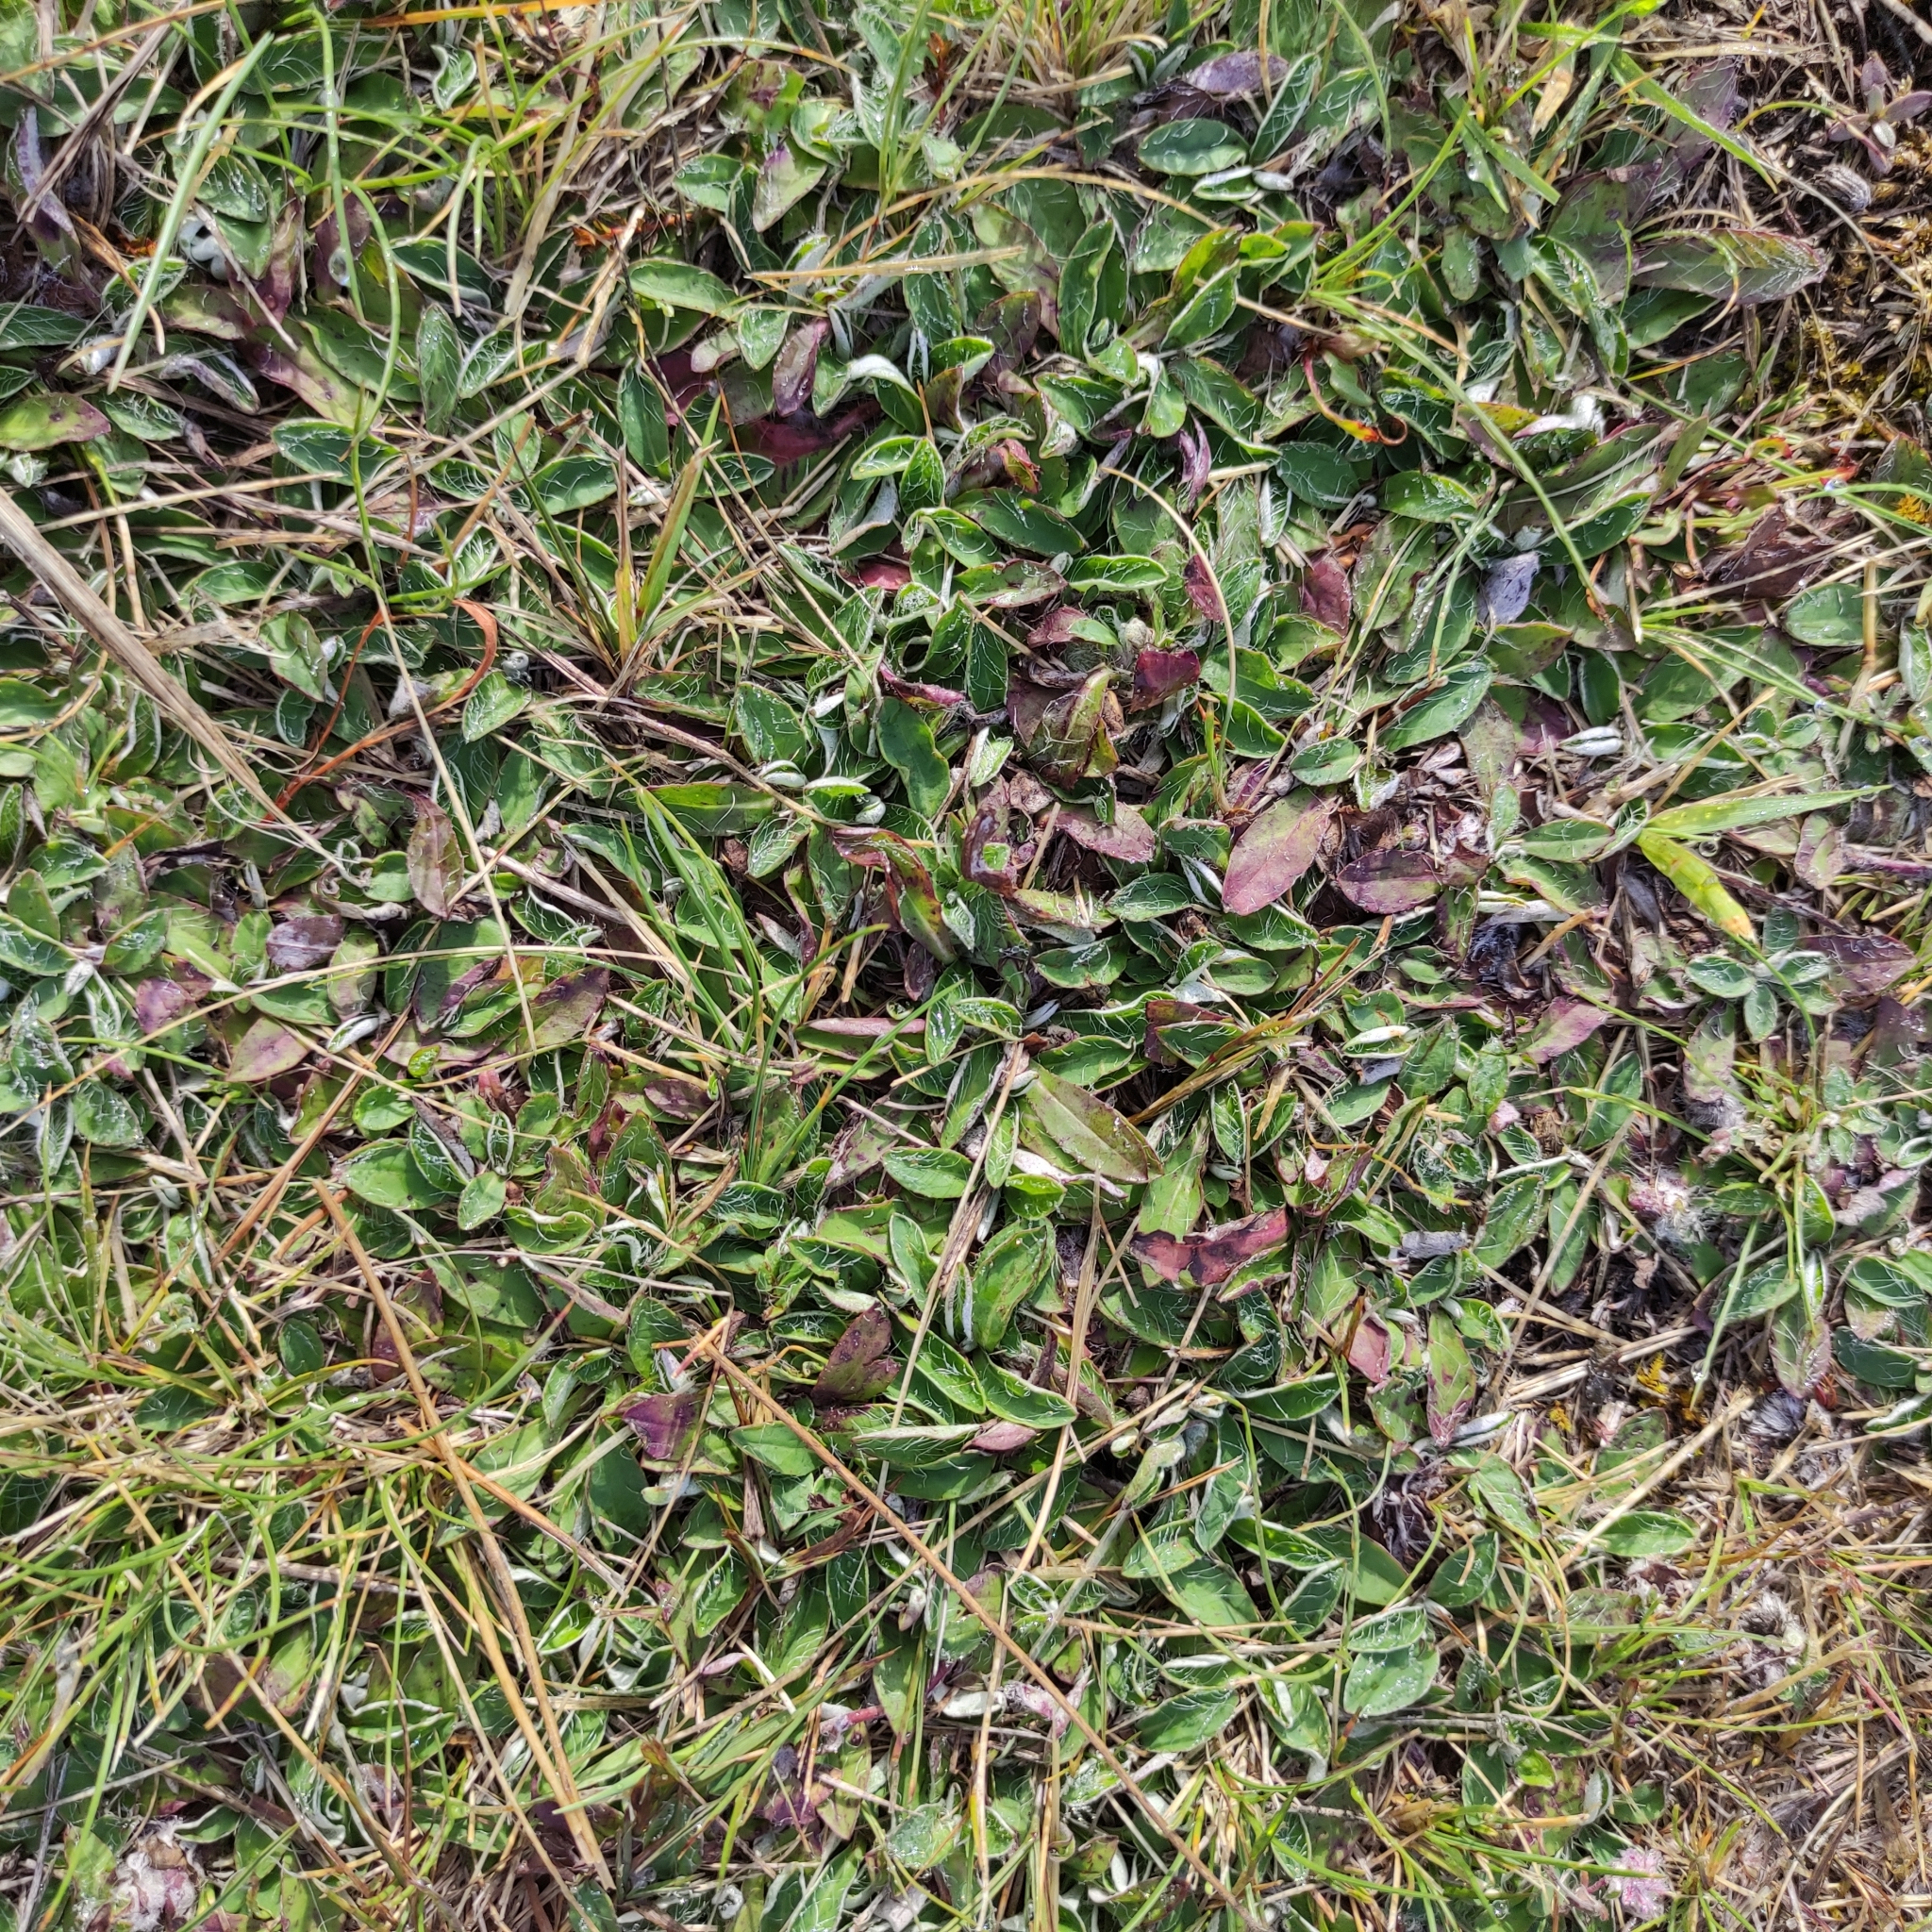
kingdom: Plantae
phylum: Tracheophyta
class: Magnoliopsida
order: Asterales
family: Asteraceae
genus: Pilosella
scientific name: Pilosella officinarum
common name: Mouse-ear hawkweed
